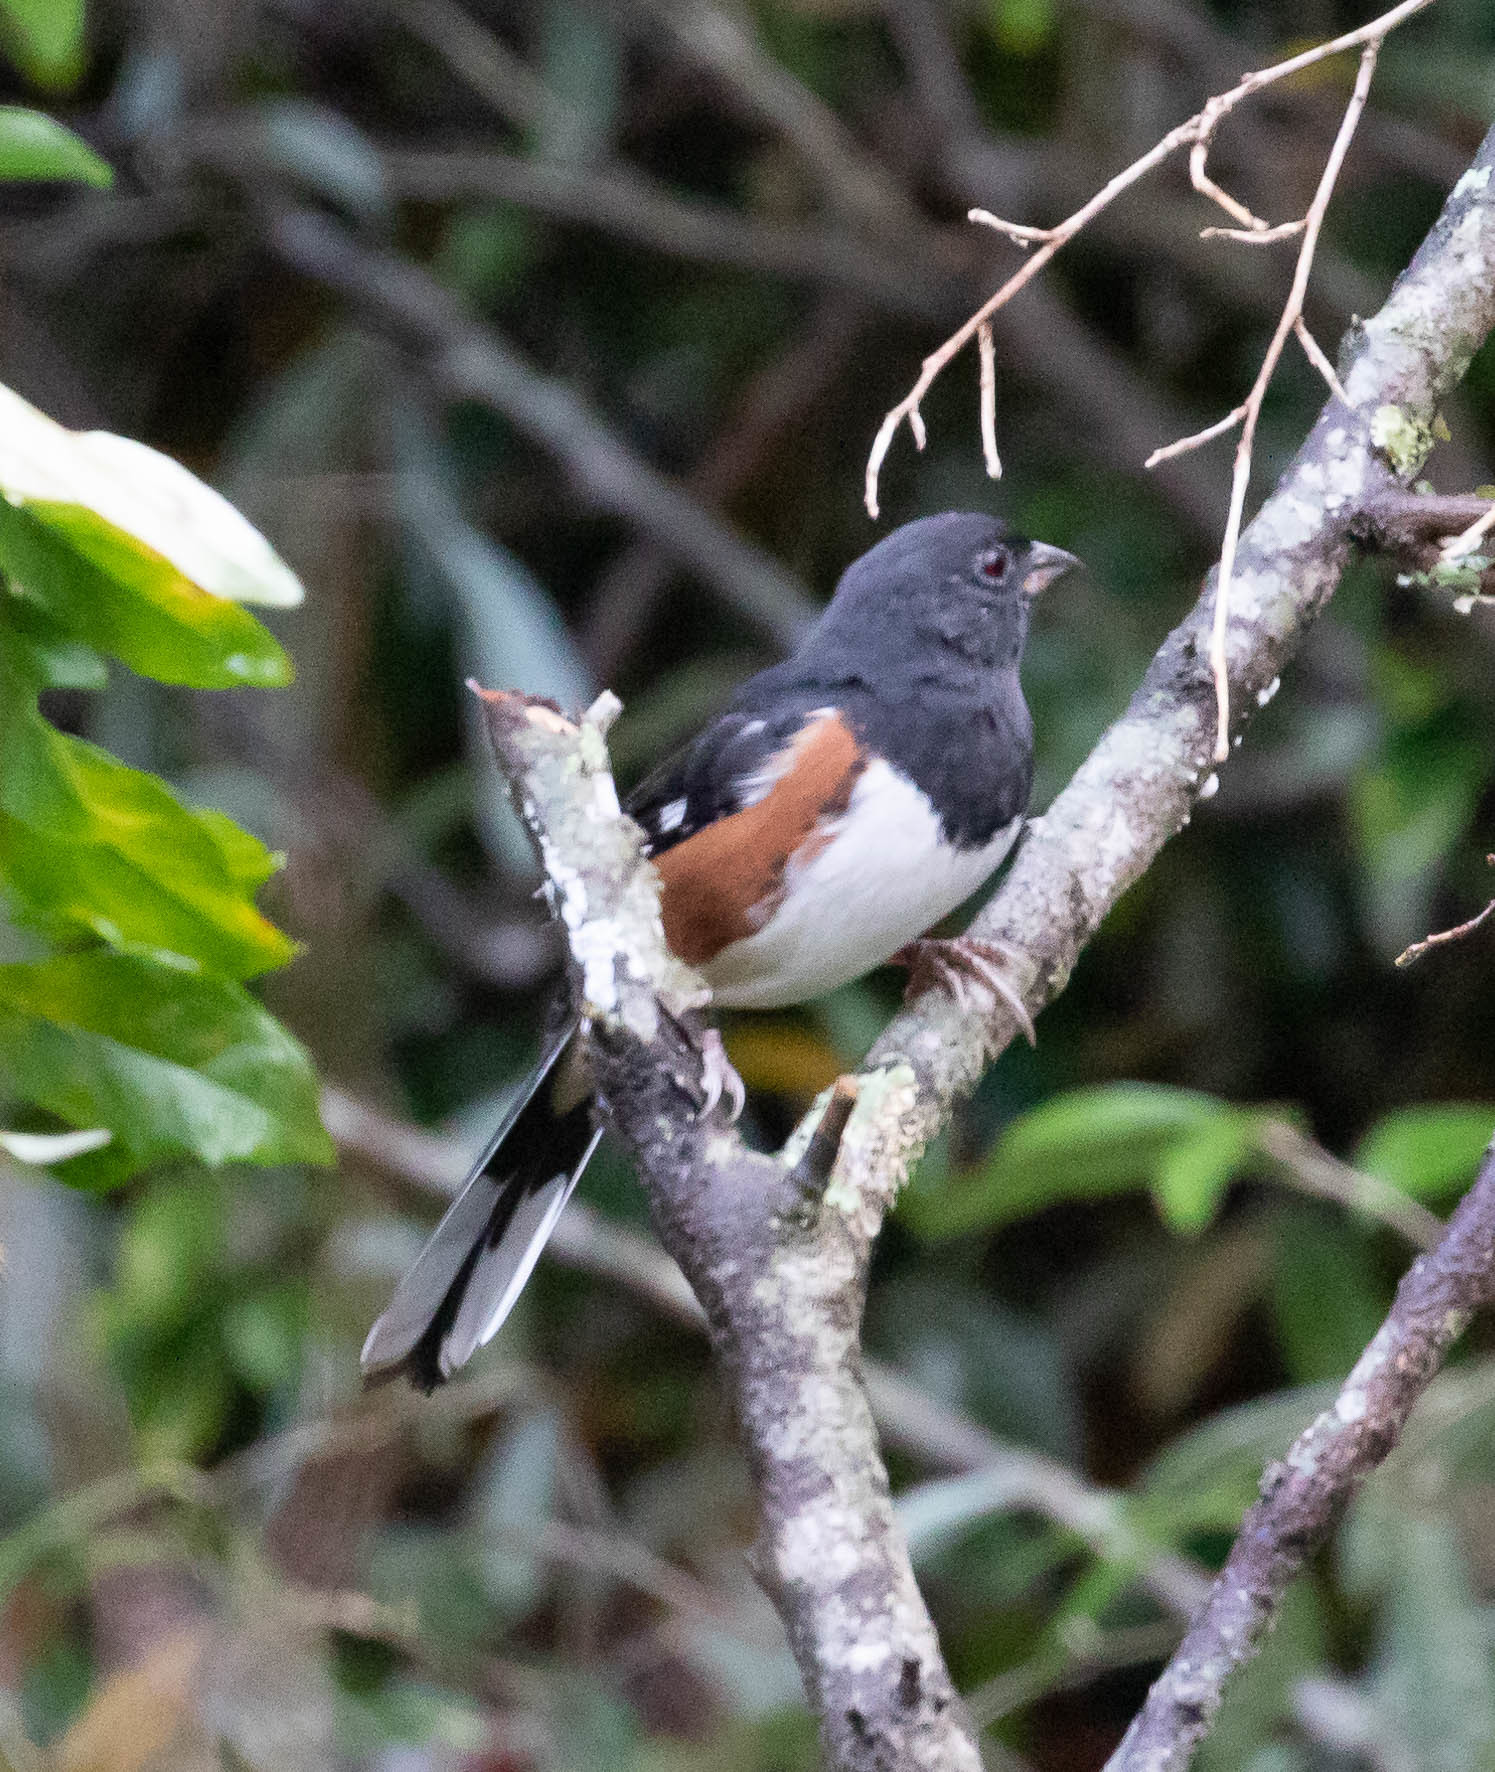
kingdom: Animalia
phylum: Chordata
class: Aves
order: Passeriformes
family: Passerellidae
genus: Pipilo
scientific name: Pipilo erythrophthalmus
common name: Eastern towhee
